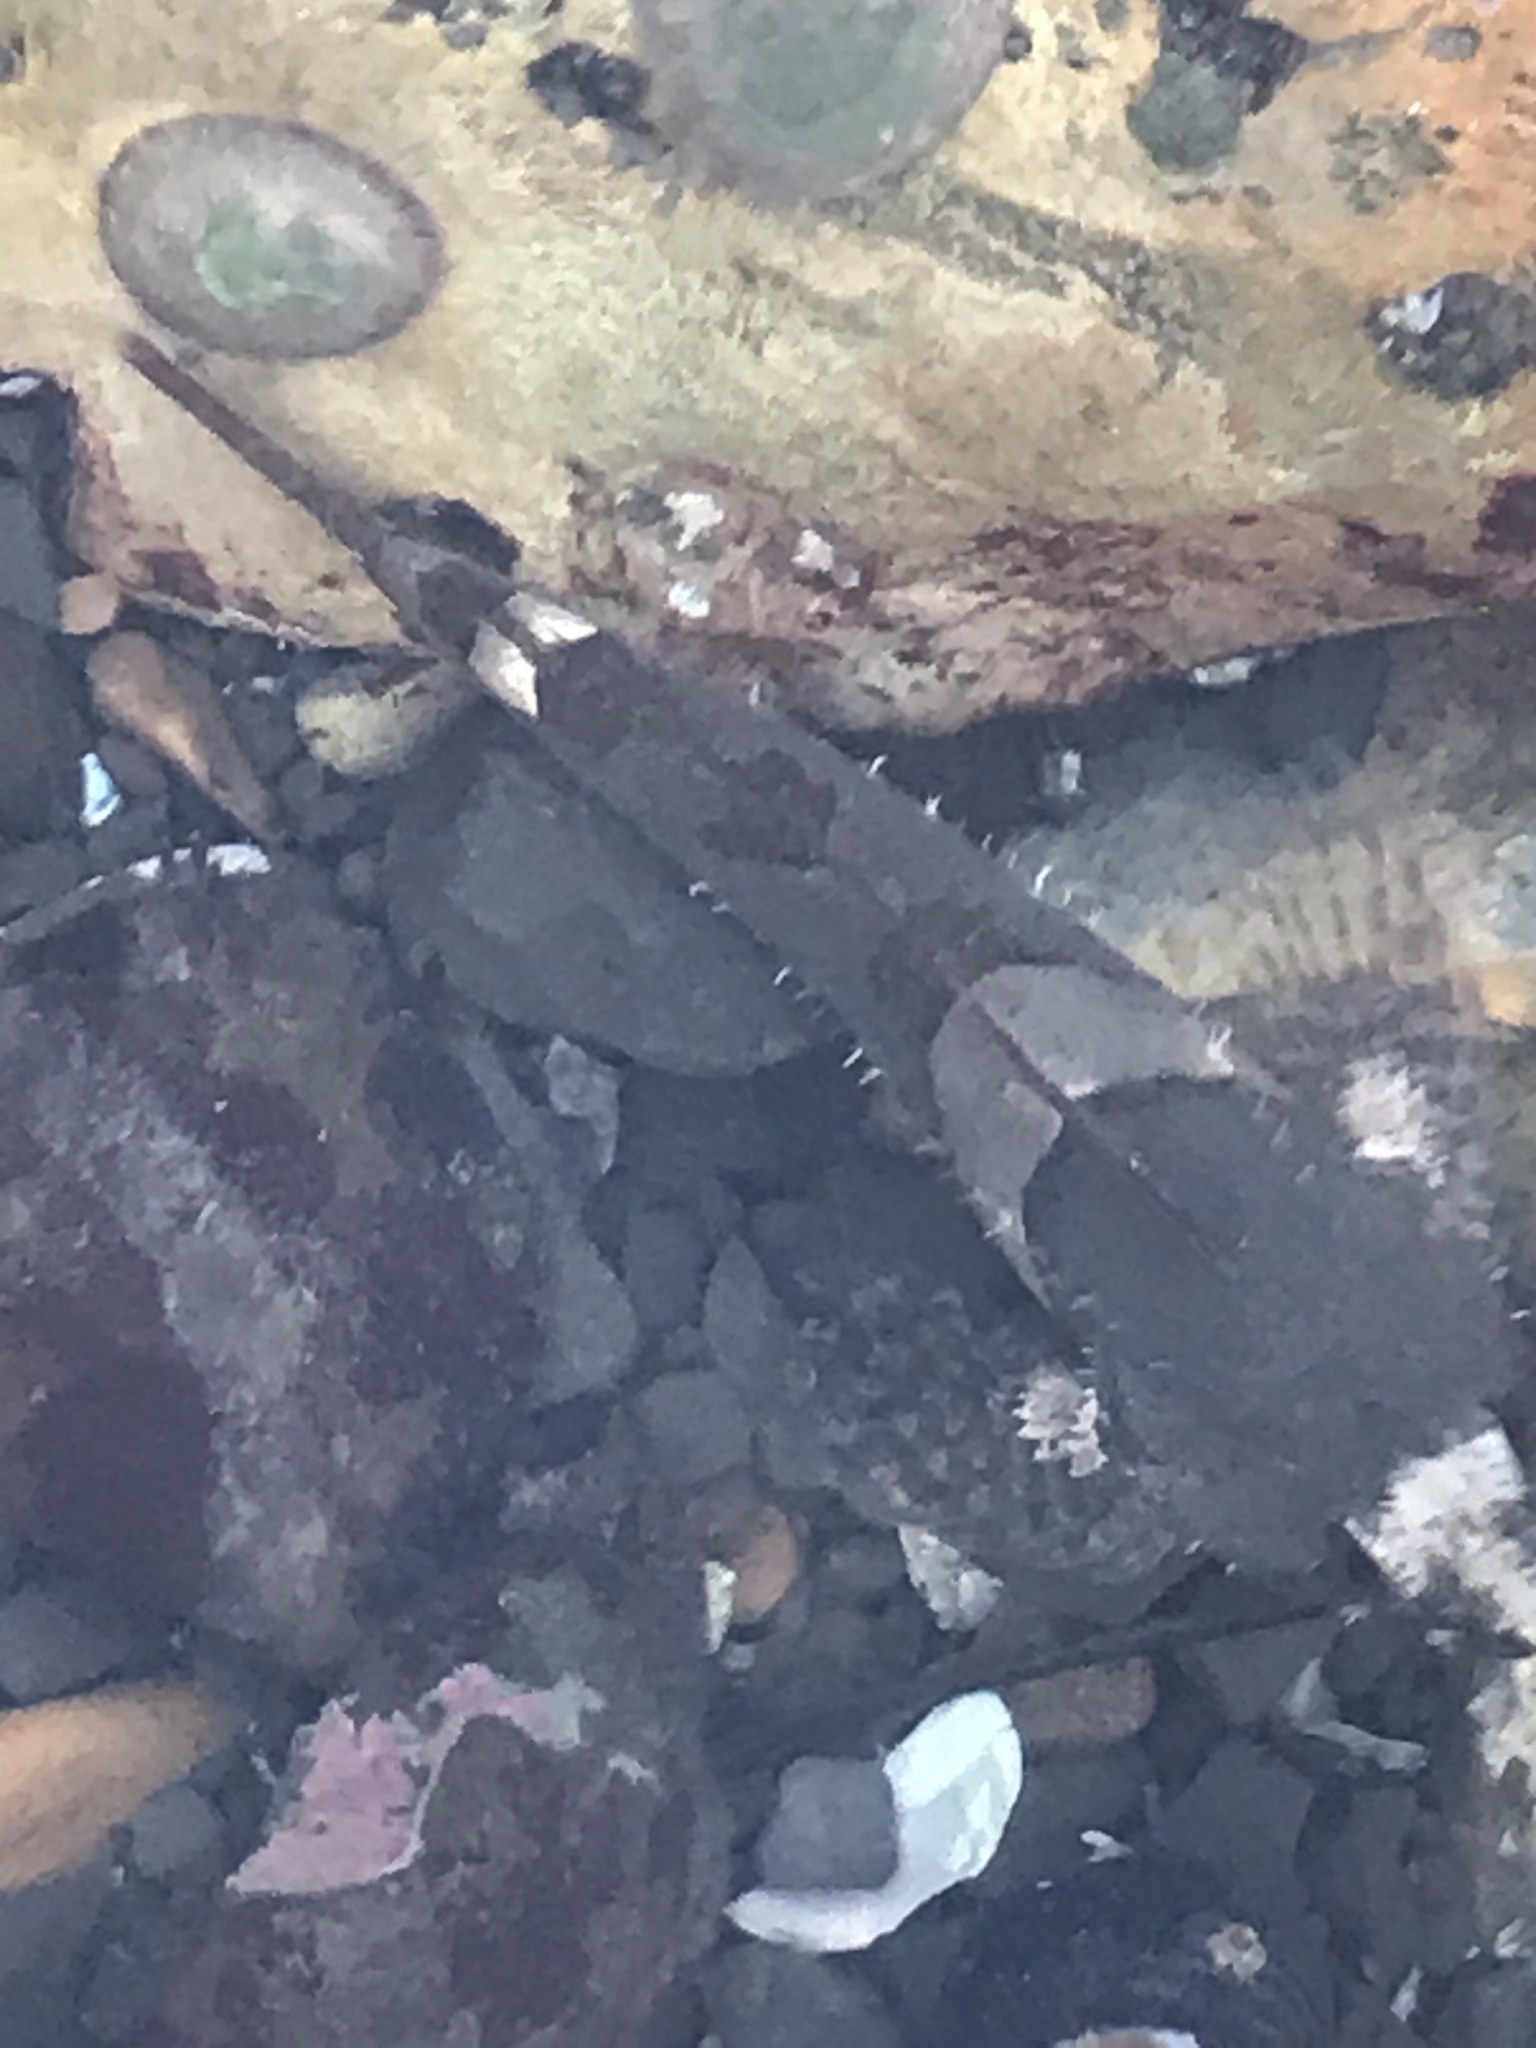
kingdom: Animalia
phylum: Chordata
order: Scorpaeniformes
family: Cottidae
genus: Oligocottus
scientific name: Oligocottus maculosus
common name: Tidepool sculpin
